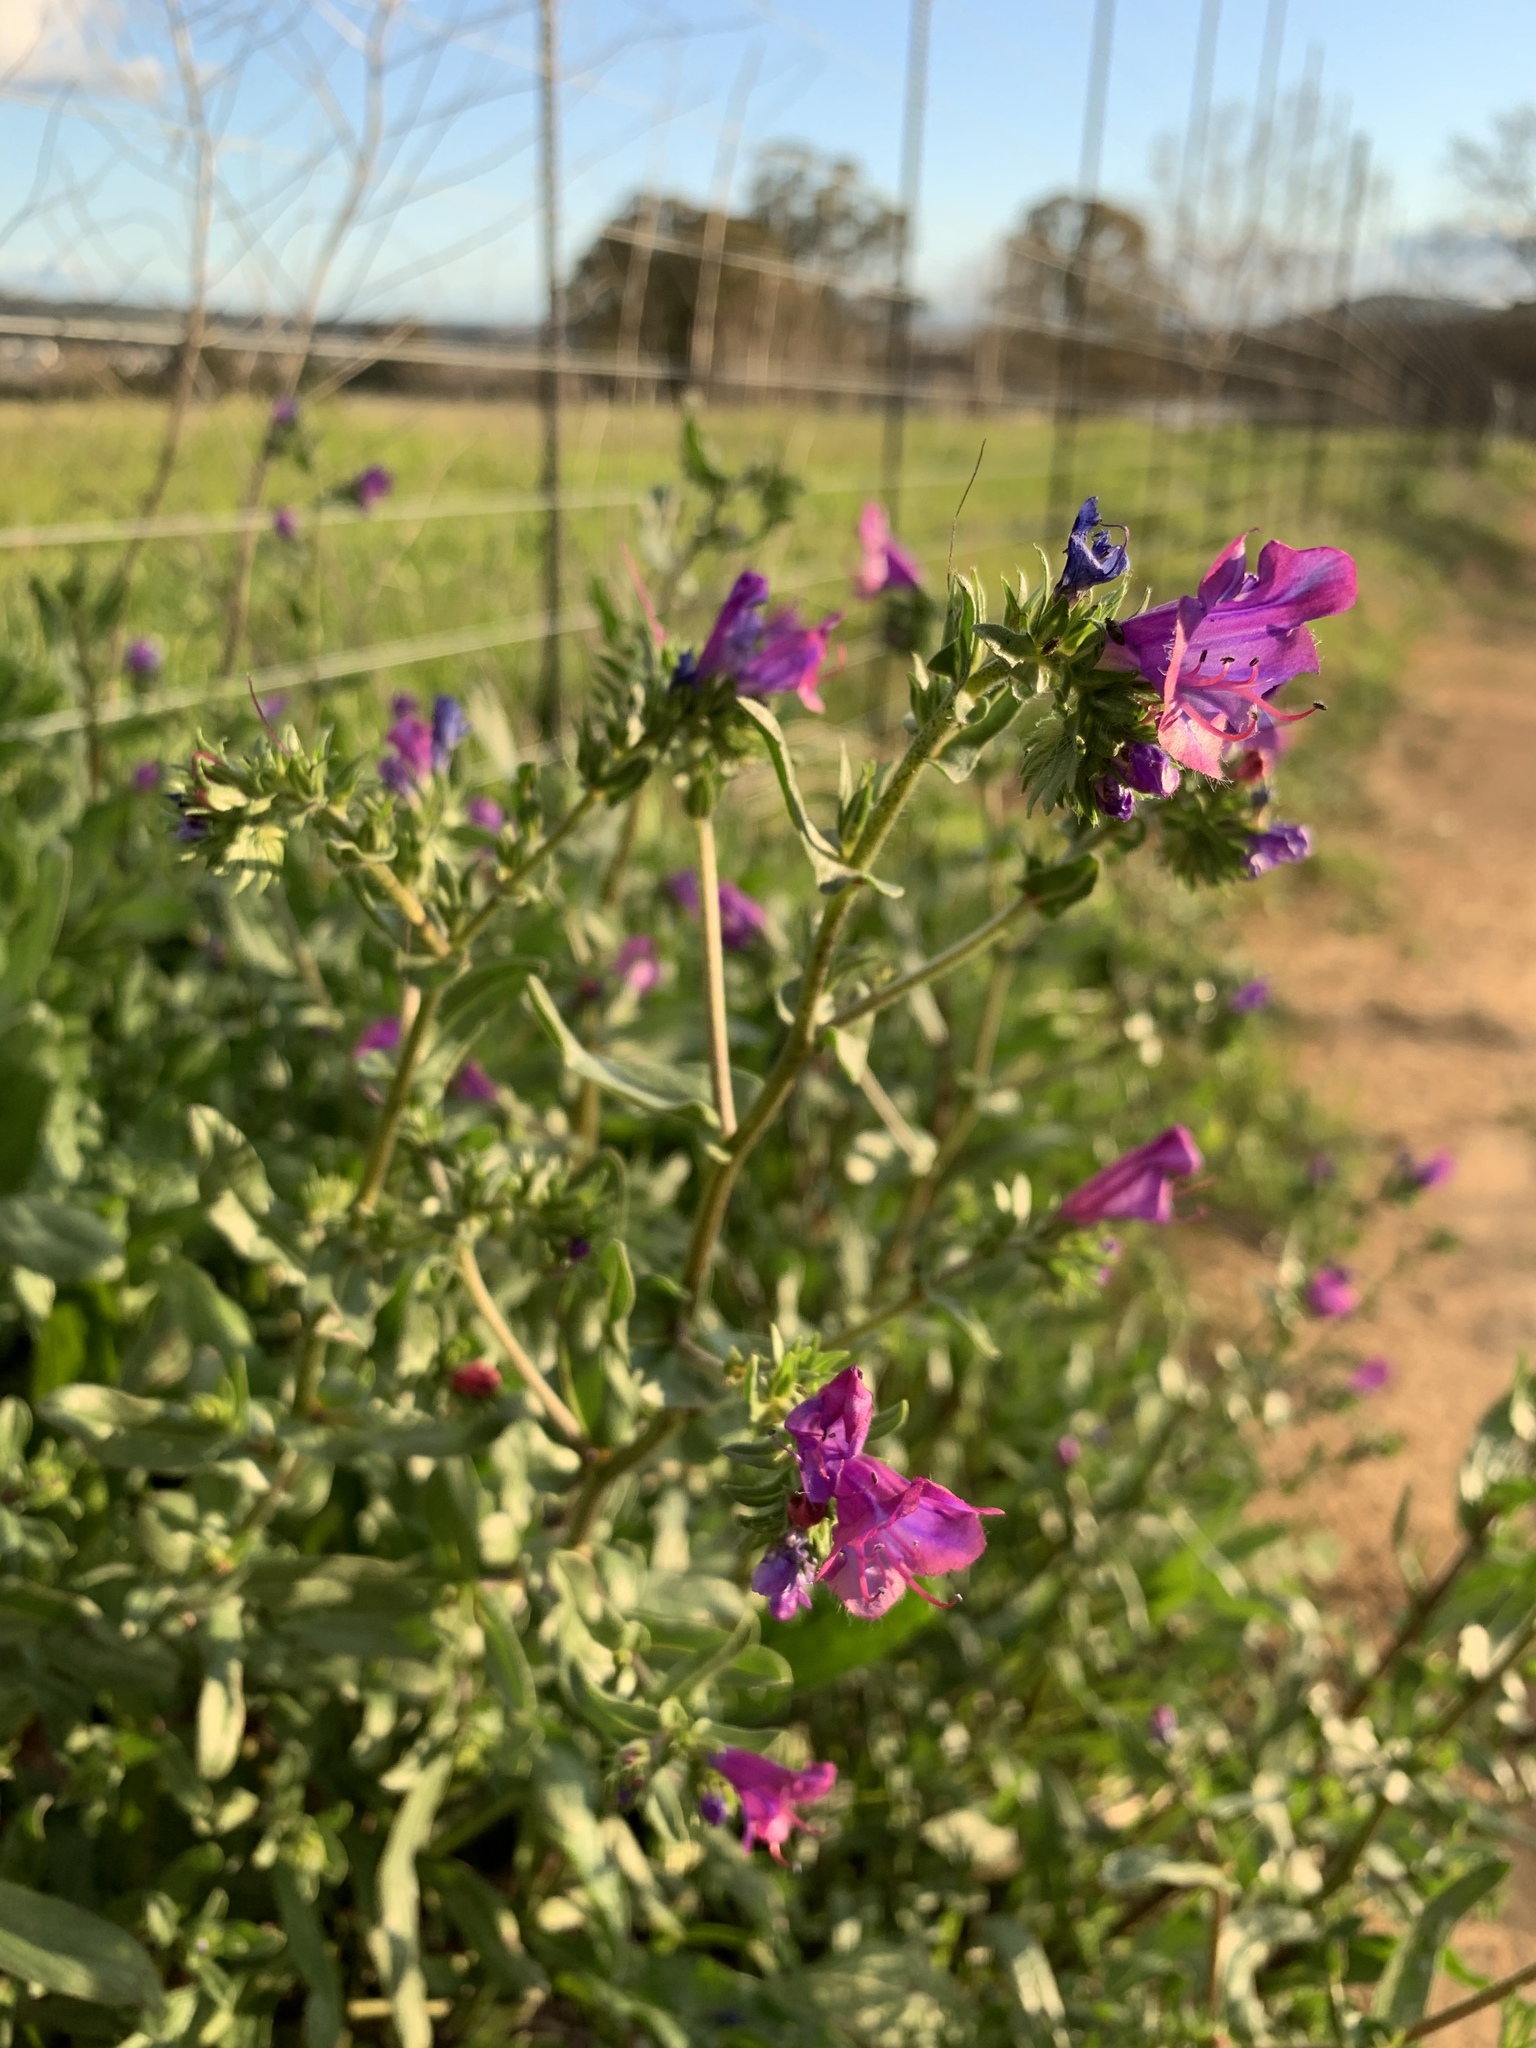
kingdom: Plantae
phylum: Tracheophyta
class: Magnoliopsida
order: Boraginales
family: Boraginaceae
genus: Echium
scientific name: Echium plantagineum
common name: Purple viper's-bugloss
